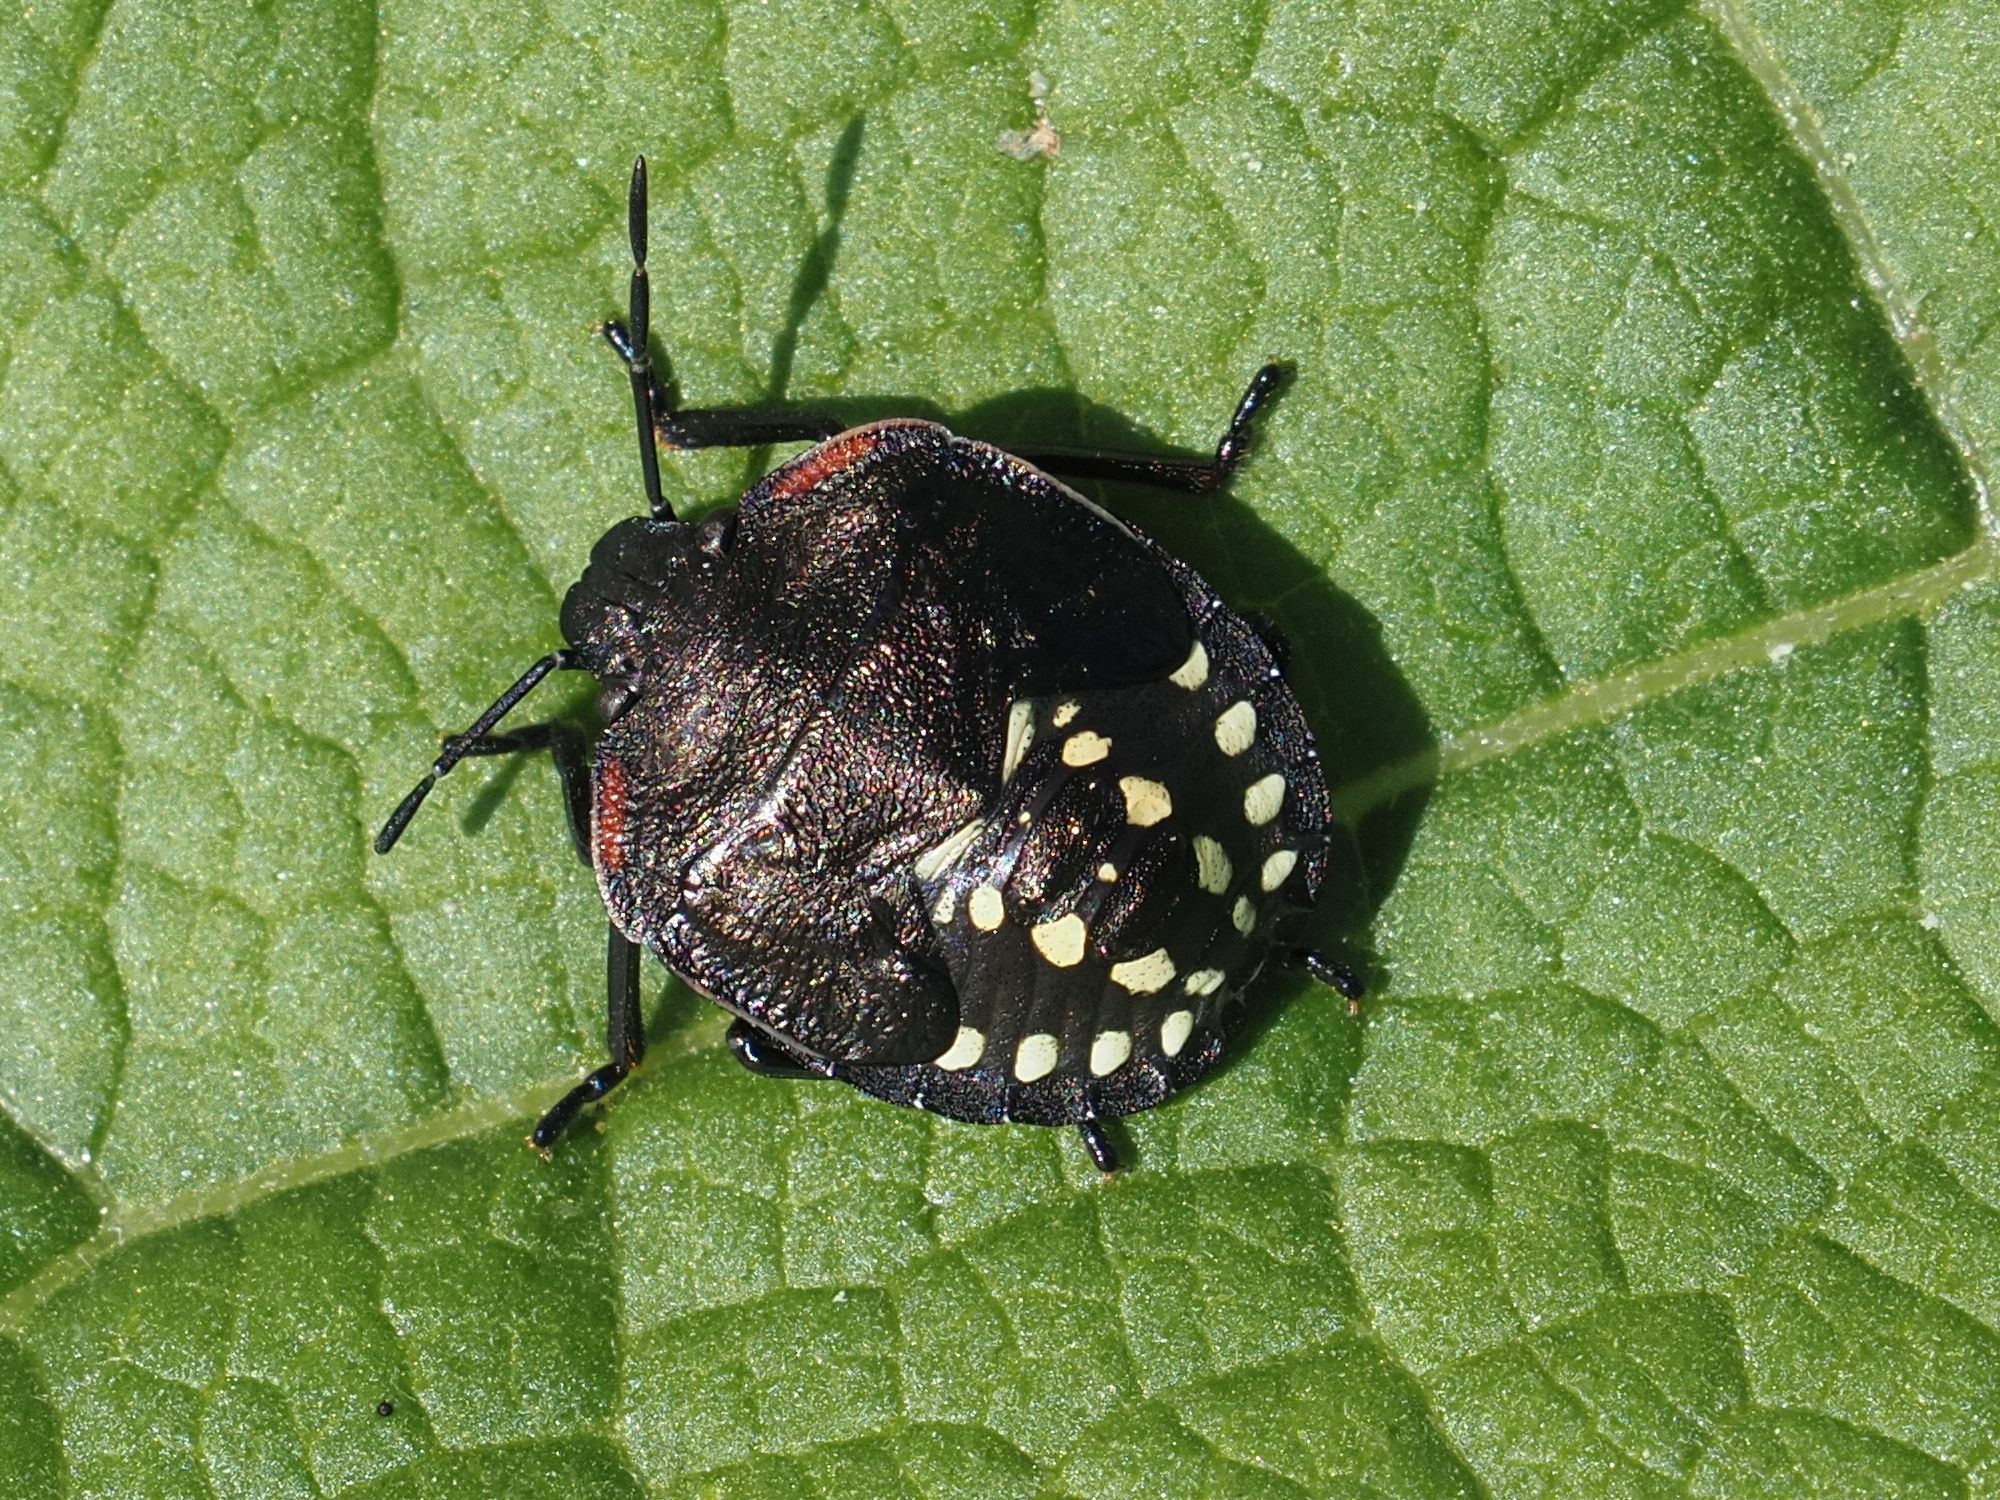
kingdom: Animalia
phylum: Arthropoda
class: Insecta
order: Hemiptera
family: Pentatomidae
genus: Nezara
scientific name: Nezara viridula
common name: Southern green stink bug
